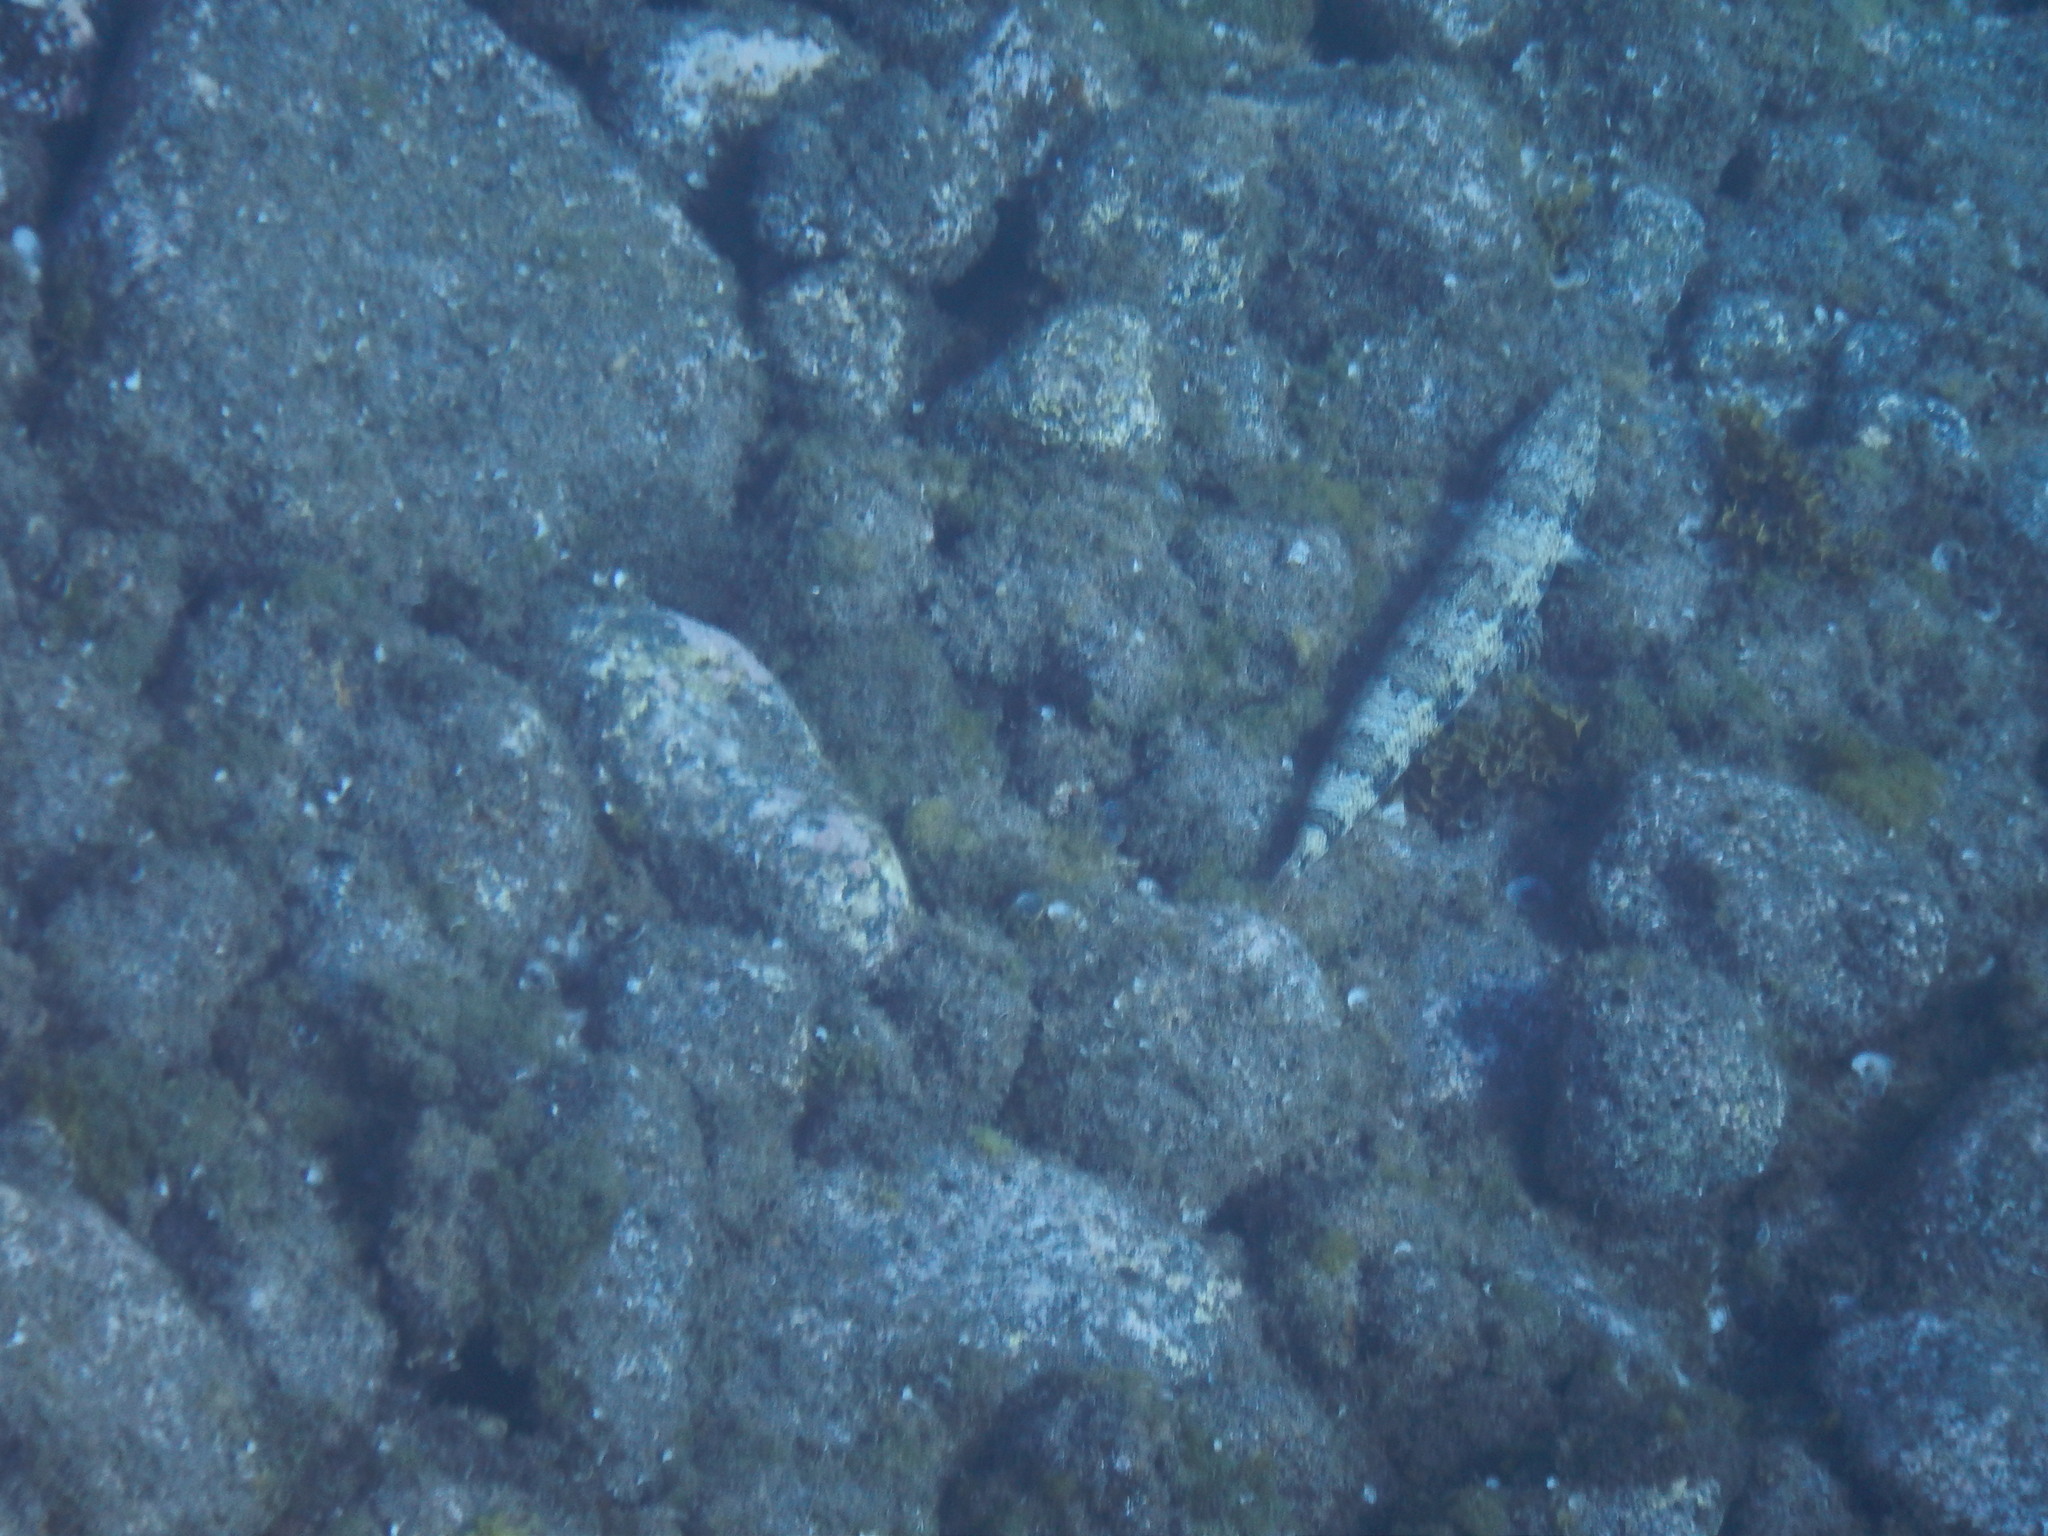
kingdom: Animalia
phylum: Chordata
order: Aulopiformes
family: Synodontidae
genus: Synodus
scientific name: Synodus synodus
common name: Red lizardfish
